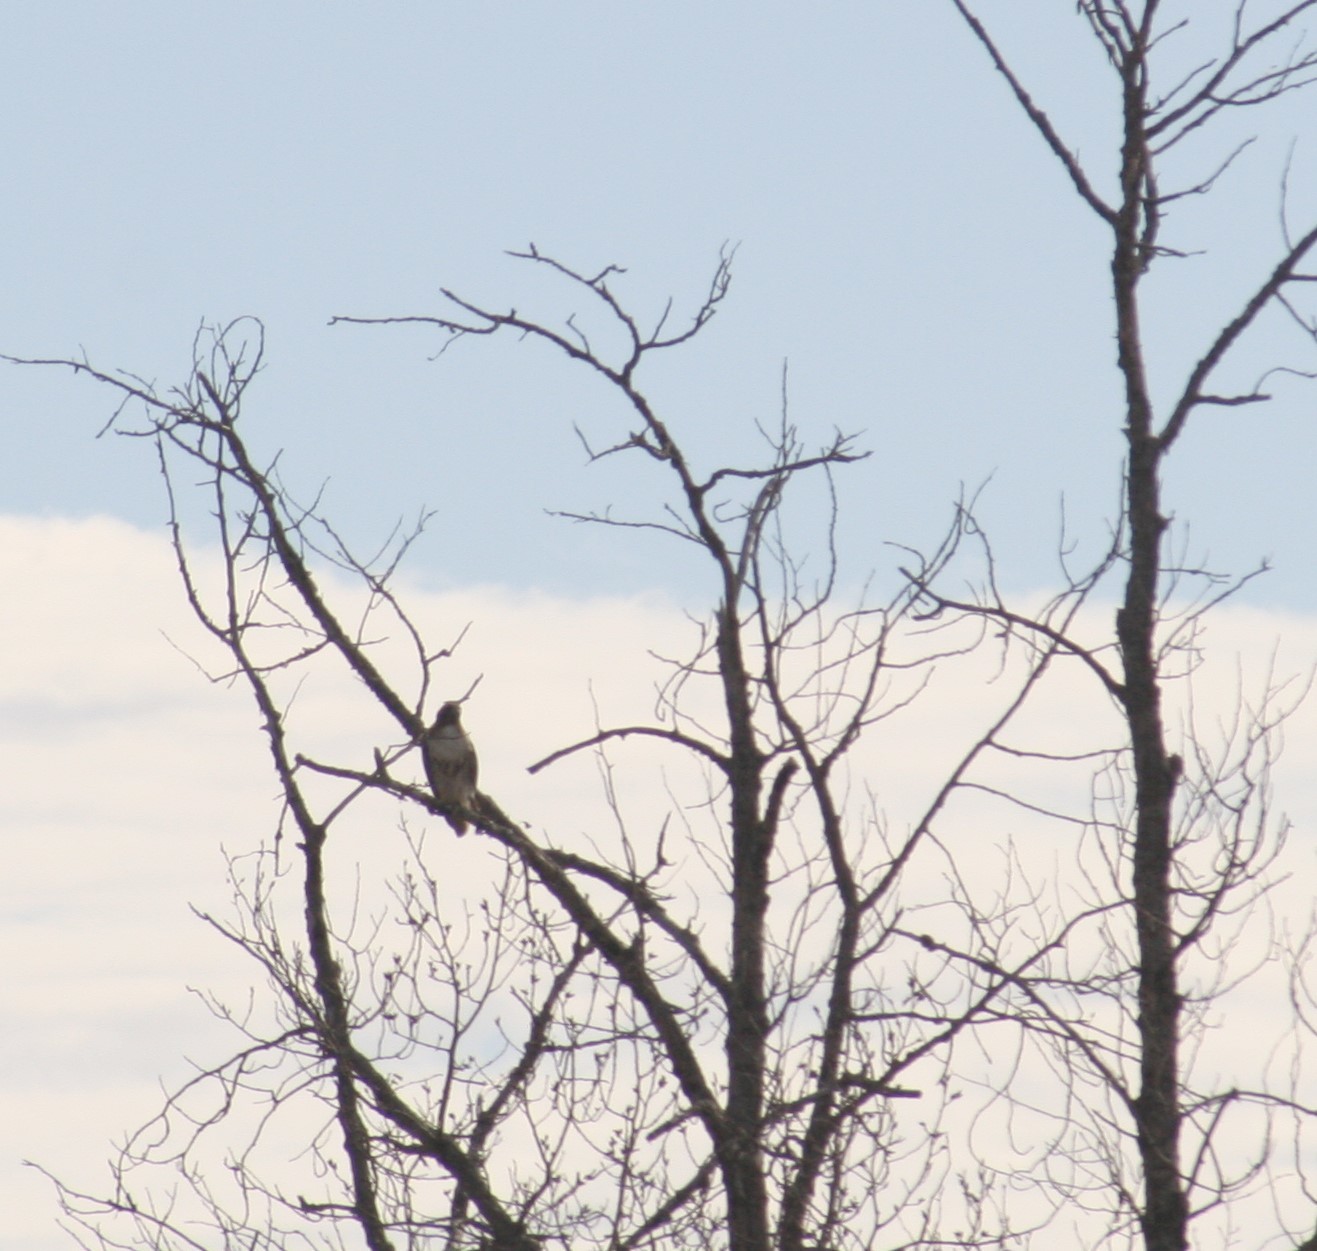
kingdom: Animalia
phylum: Chordata
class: Aves
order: Accipitriformes
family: Accipitridae
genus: Buteo
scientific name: Buteo jamaicensis
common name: Red-tailed hawk
